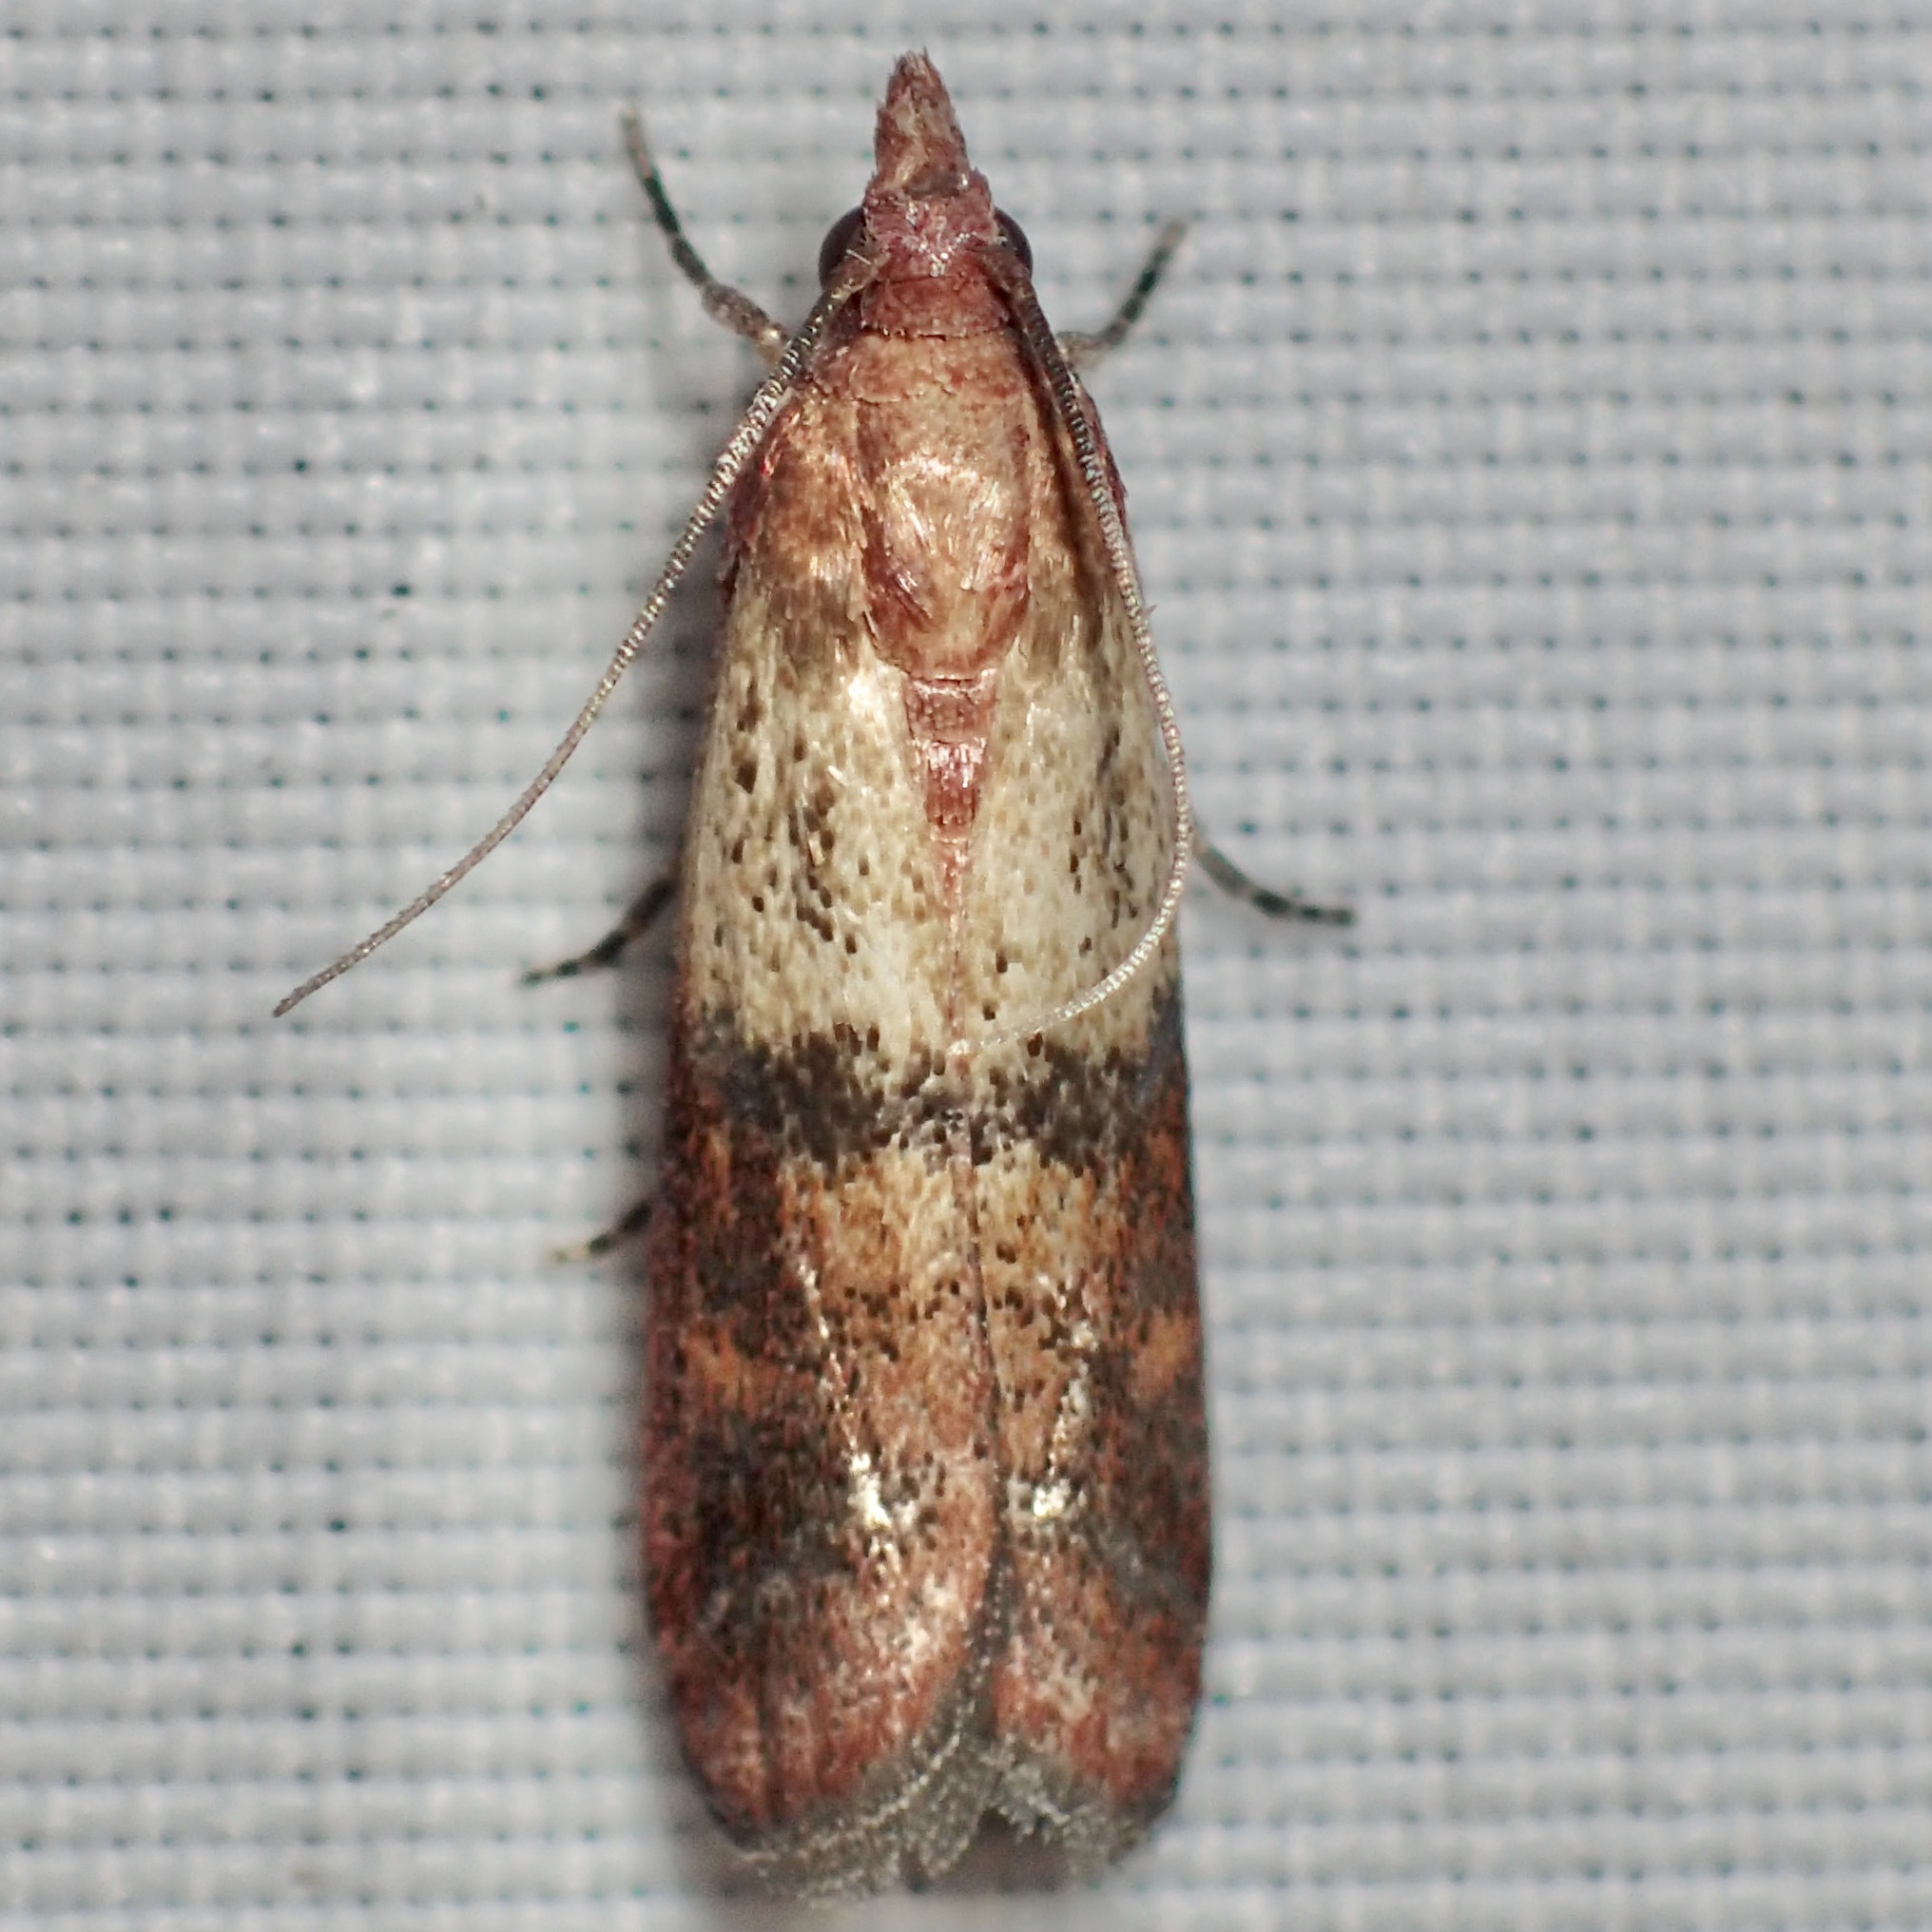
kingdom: Animalia
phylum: Arthropoda
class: Insecta
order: Lepidoptera
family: Pyralidae
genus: Plodia
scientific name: Plodia interpunctella
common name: Indian meal moth
